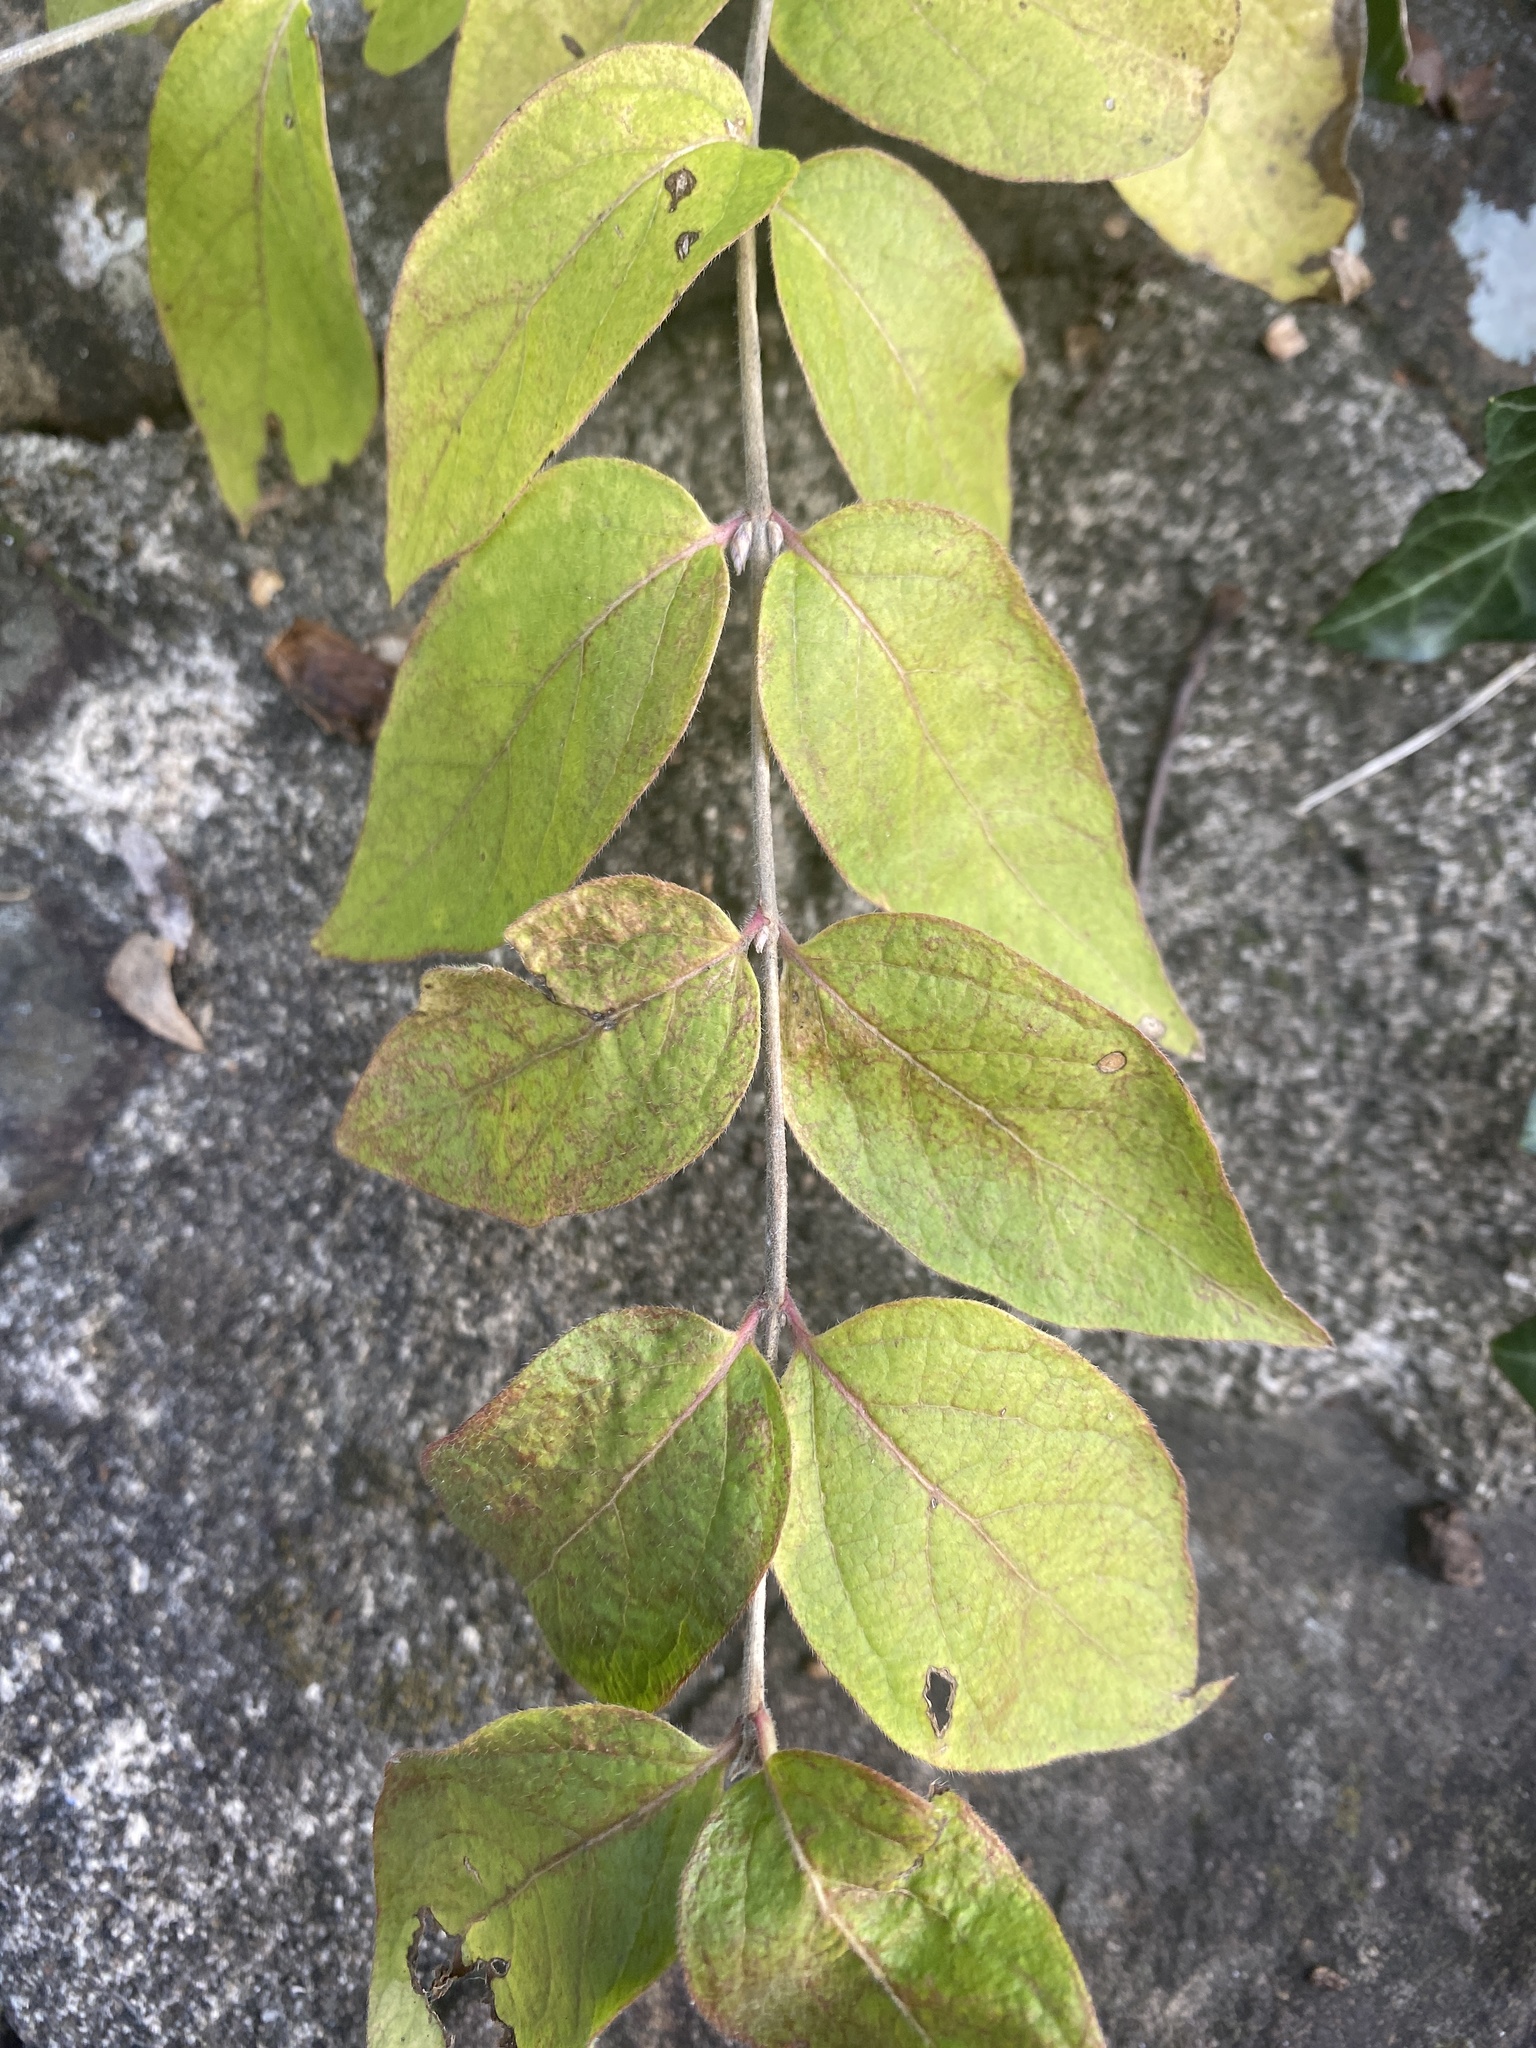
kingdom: Plantae
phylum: Tracheophyta
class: Magnoliopsida
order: Dipsacales
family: Caprifoliaceae
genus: Lonicera
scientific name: Lonicera maackii
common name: Amur honeysuckle
